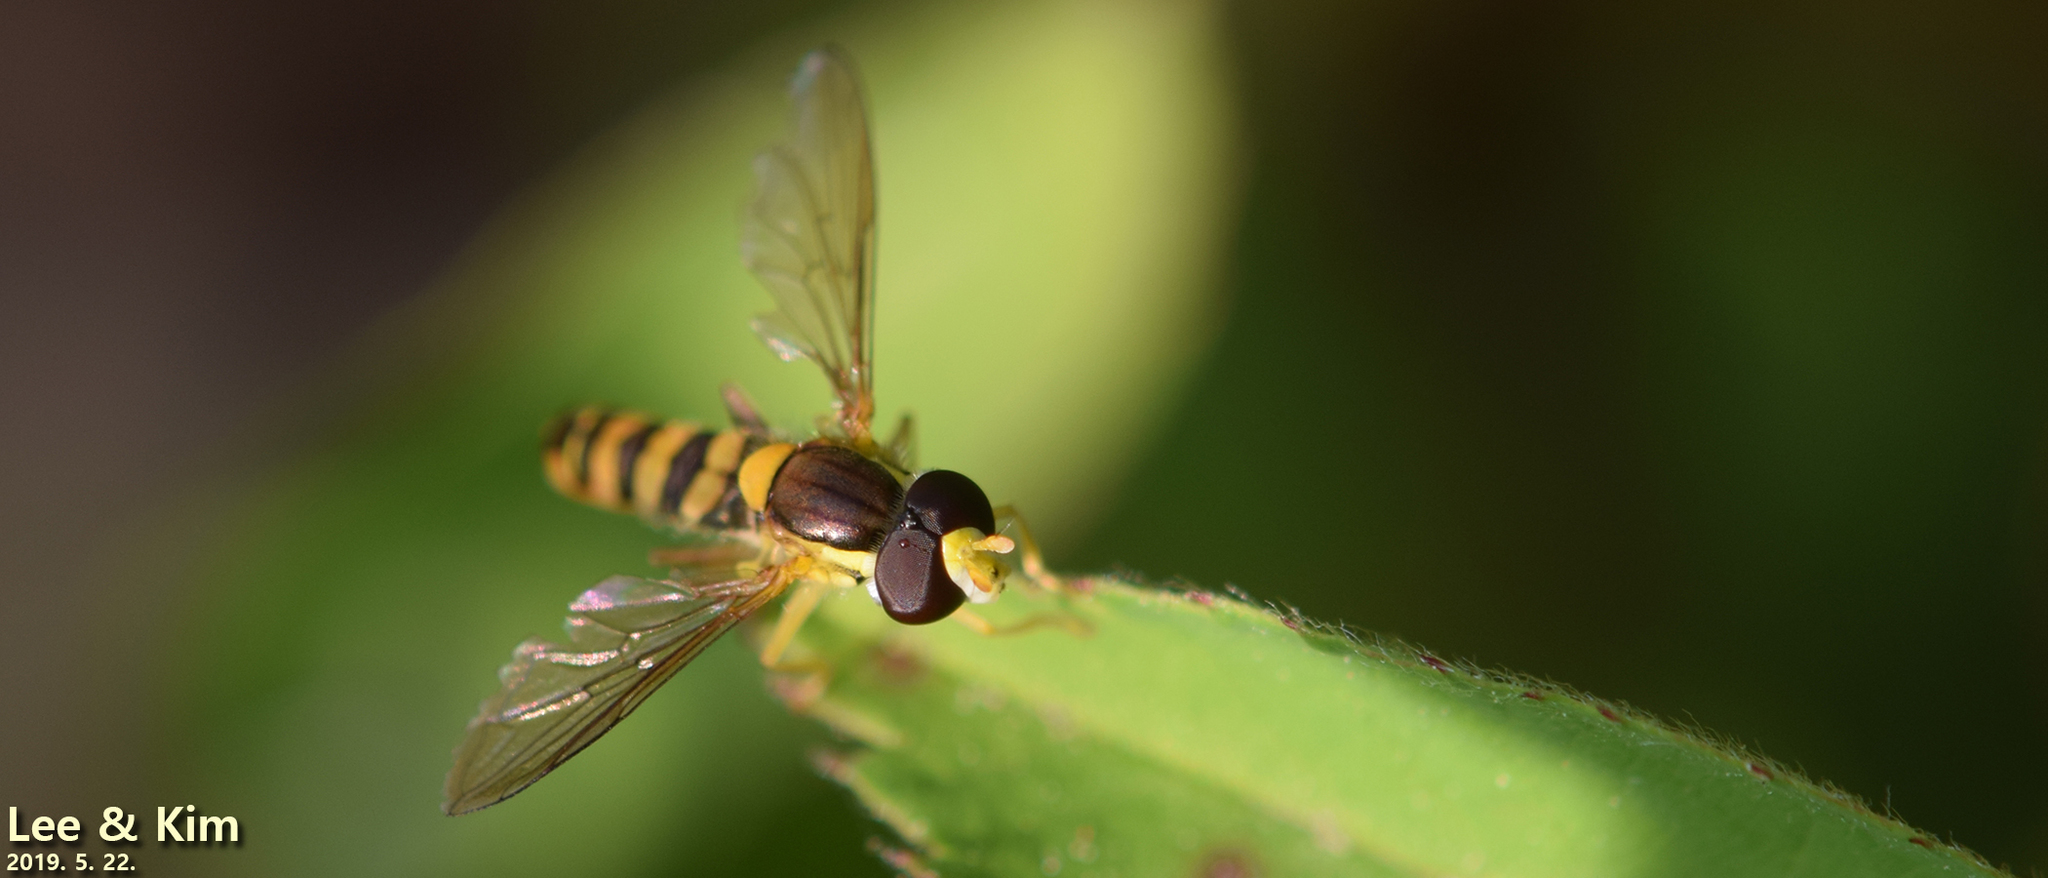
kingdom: Animalia
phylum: Arthropoda
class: Insecta
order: Diptera
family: Syrphidae
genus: Sphaerophoria
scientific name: Sphaerophoria scripta
